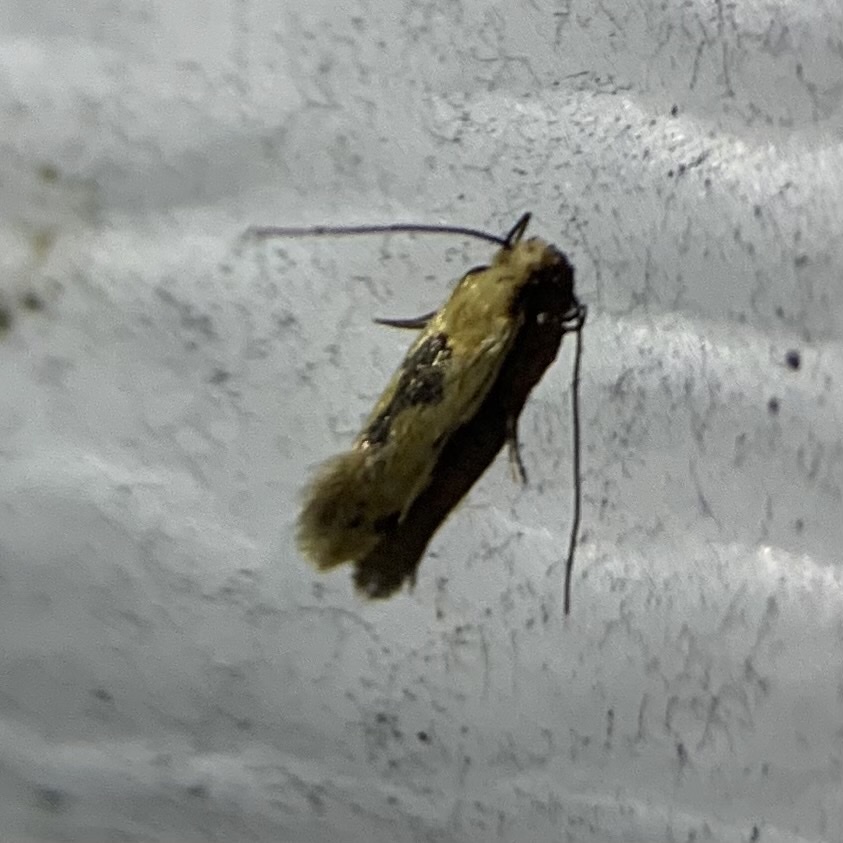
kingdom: Animalia
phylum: Arthropoda
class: Insecta
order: Lepidoptera
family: Meessiidae
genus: Hybroma
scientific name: Hybroma servulella
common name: Yellow wave moth
